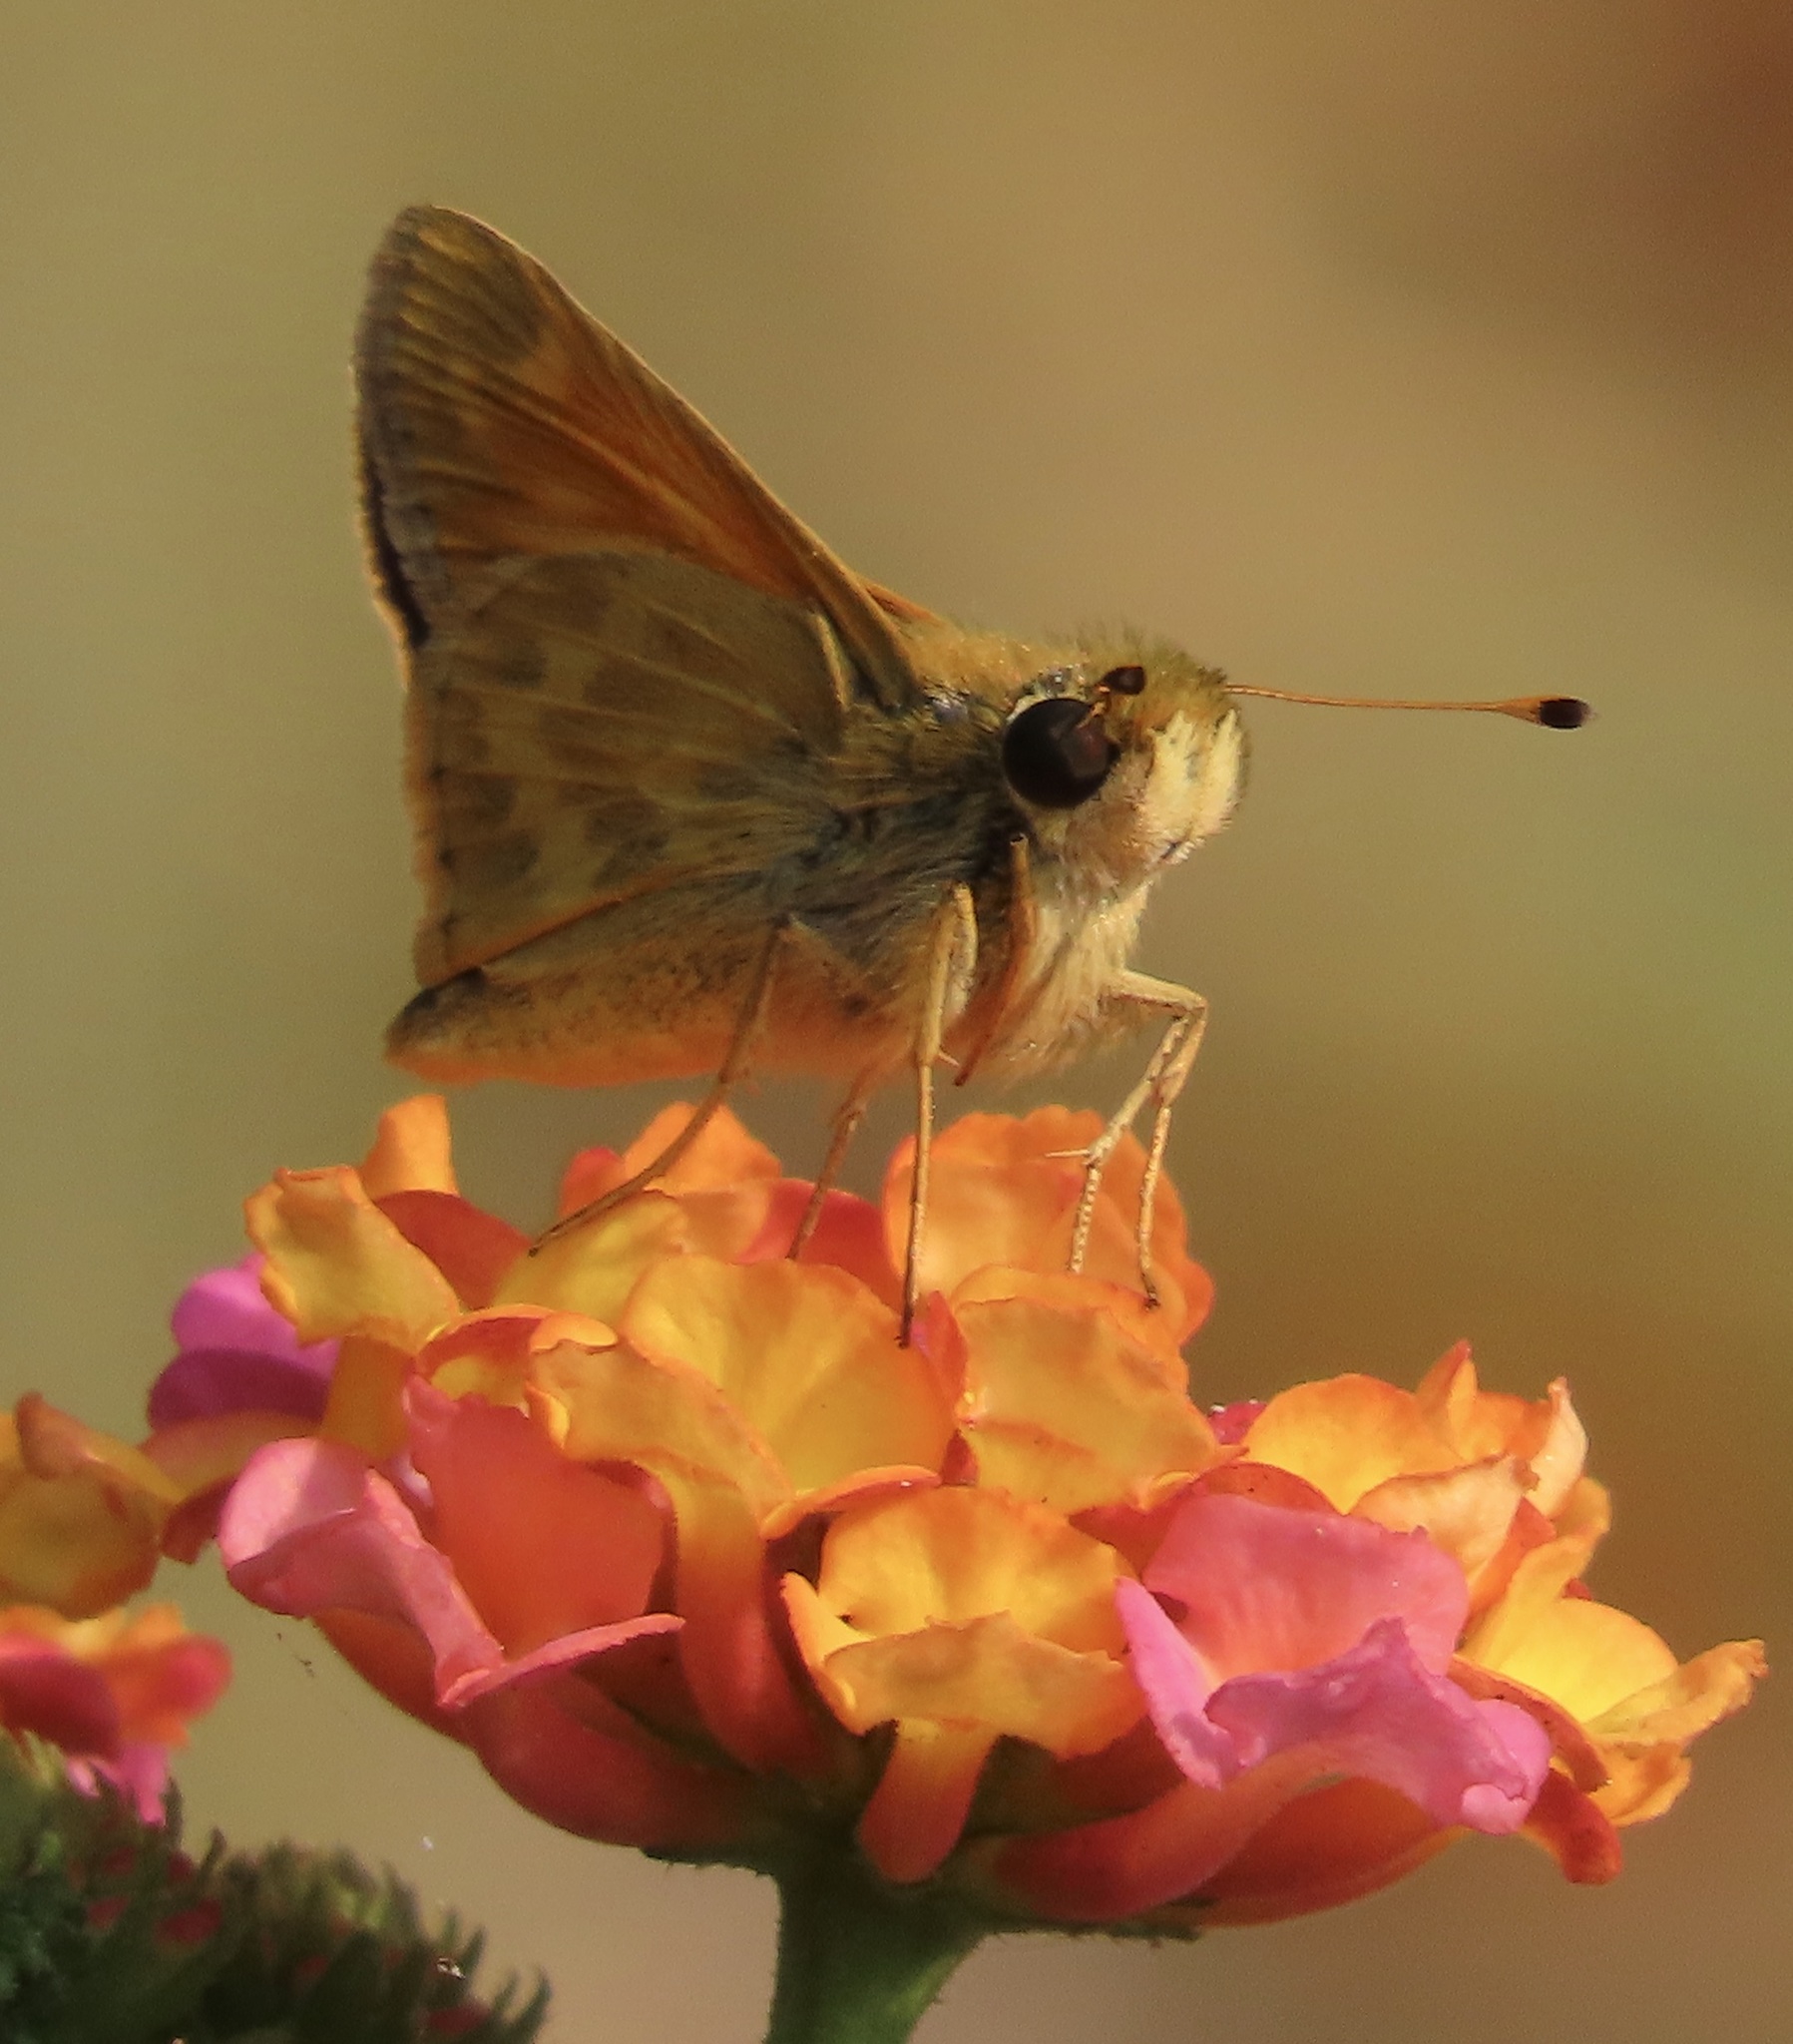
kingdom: Animalia
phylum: Arthropoda
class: Insecta
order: Lepidoptera
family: Hesperiidae
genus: Atalopedes
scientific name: Atalopedes campestris
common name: Sachem
